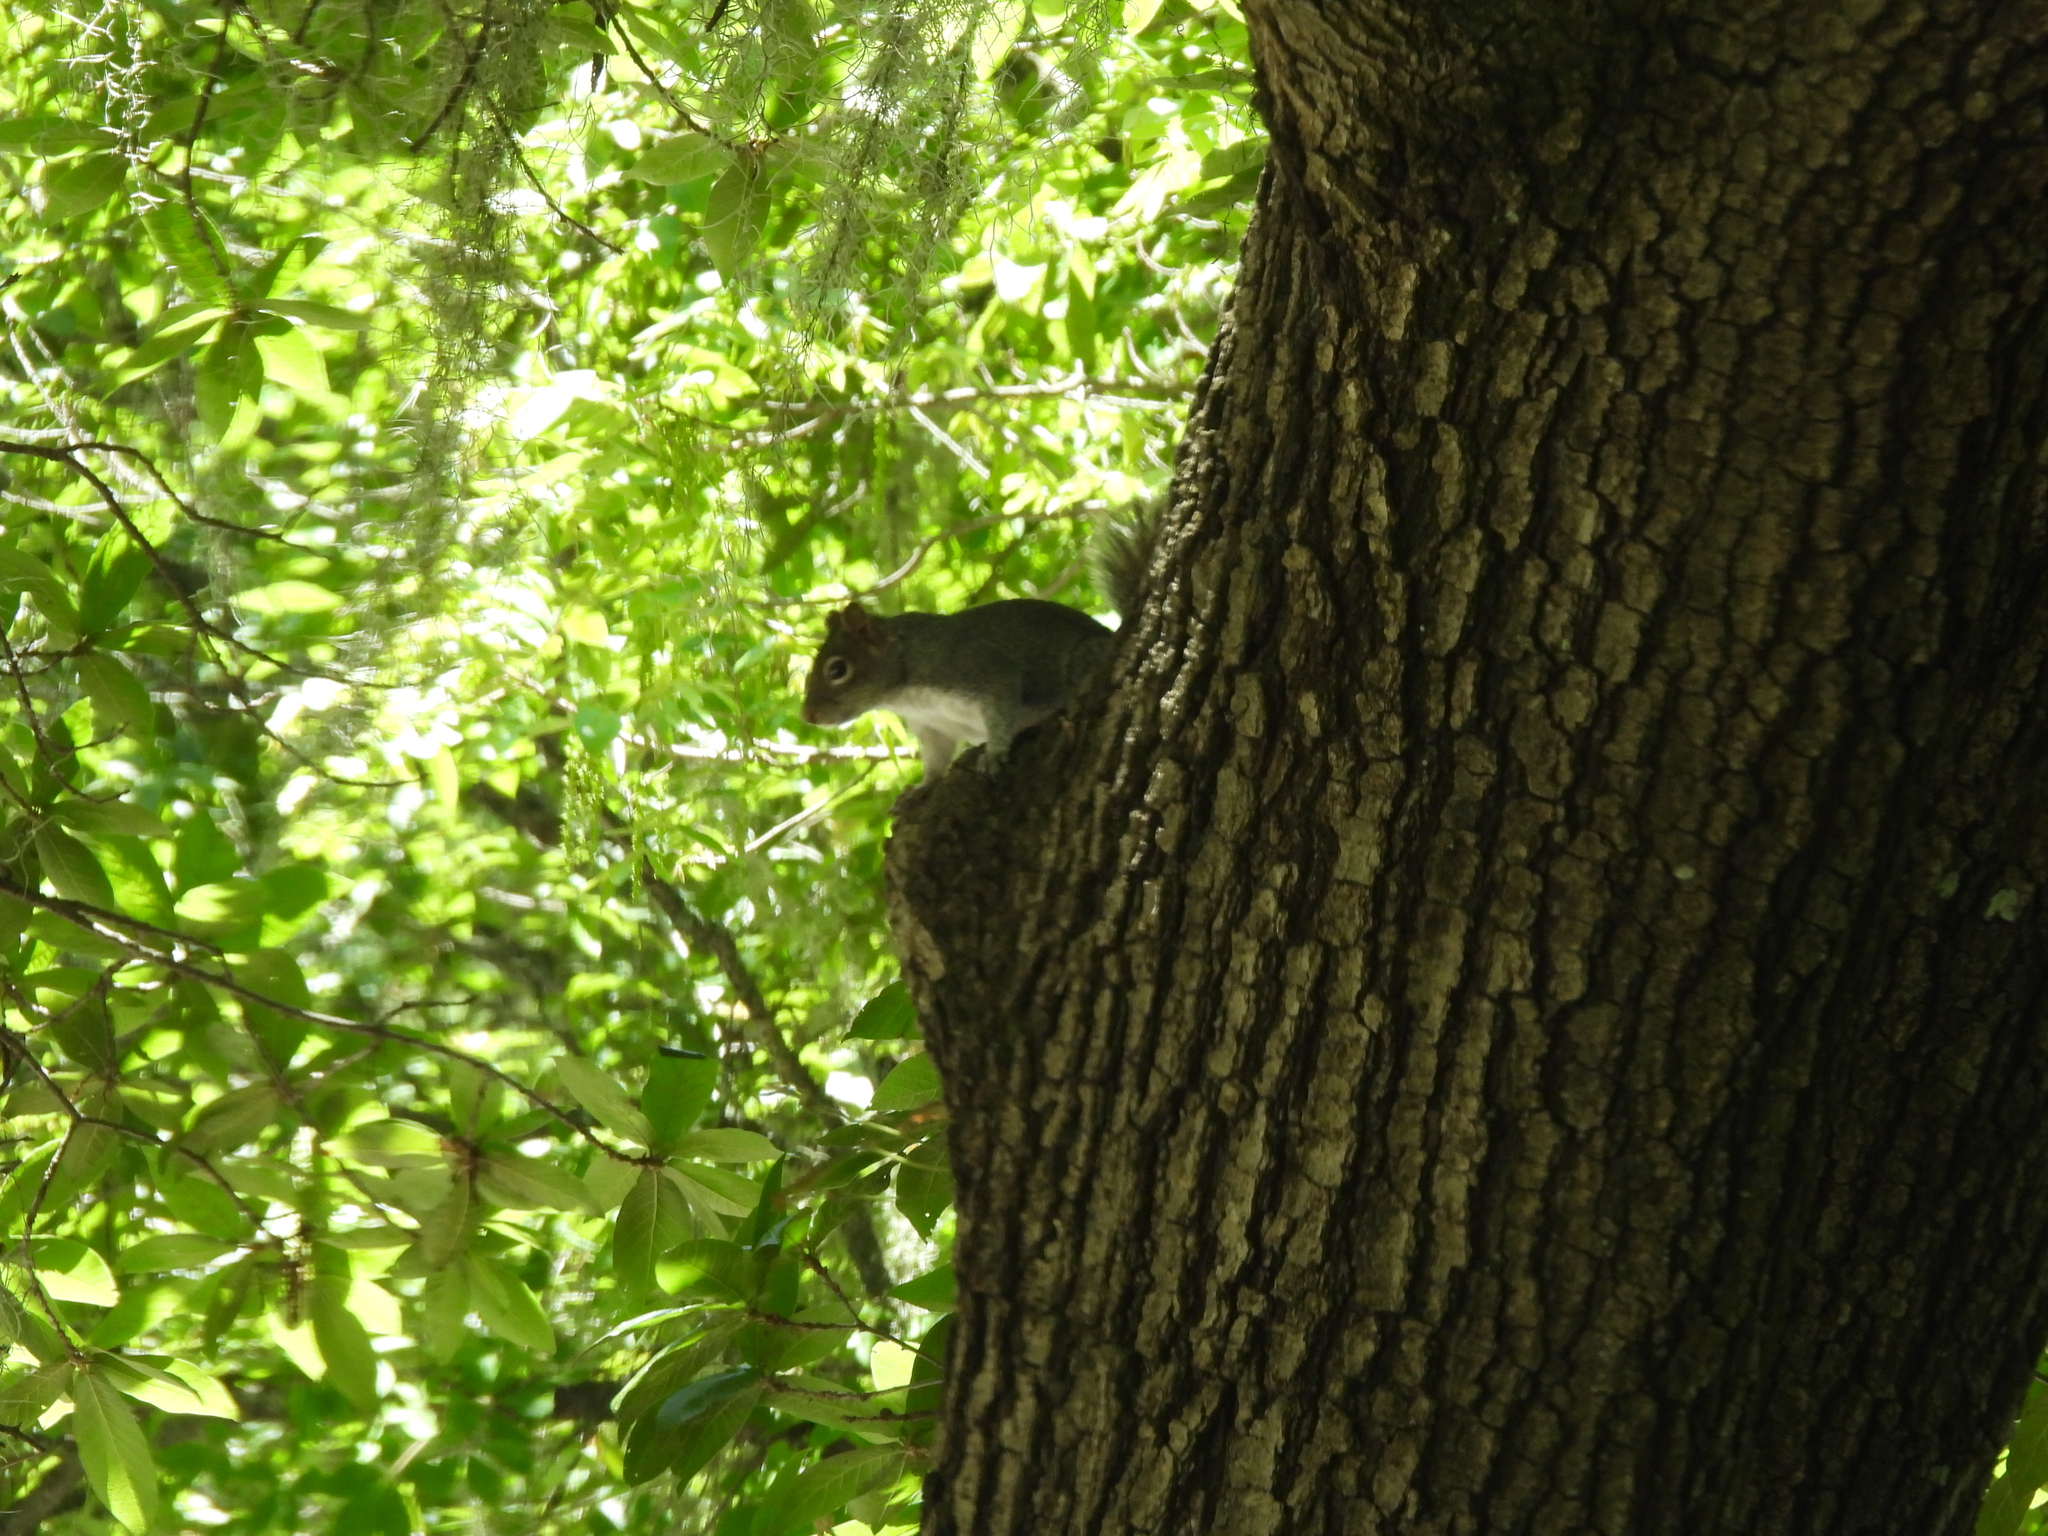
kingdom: Animalia
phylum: Chordata
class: Mammalia
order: Rodentia
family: Sciuridae
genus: Sciurus
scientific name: Sciurus alleni
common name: Allen's squirrel
